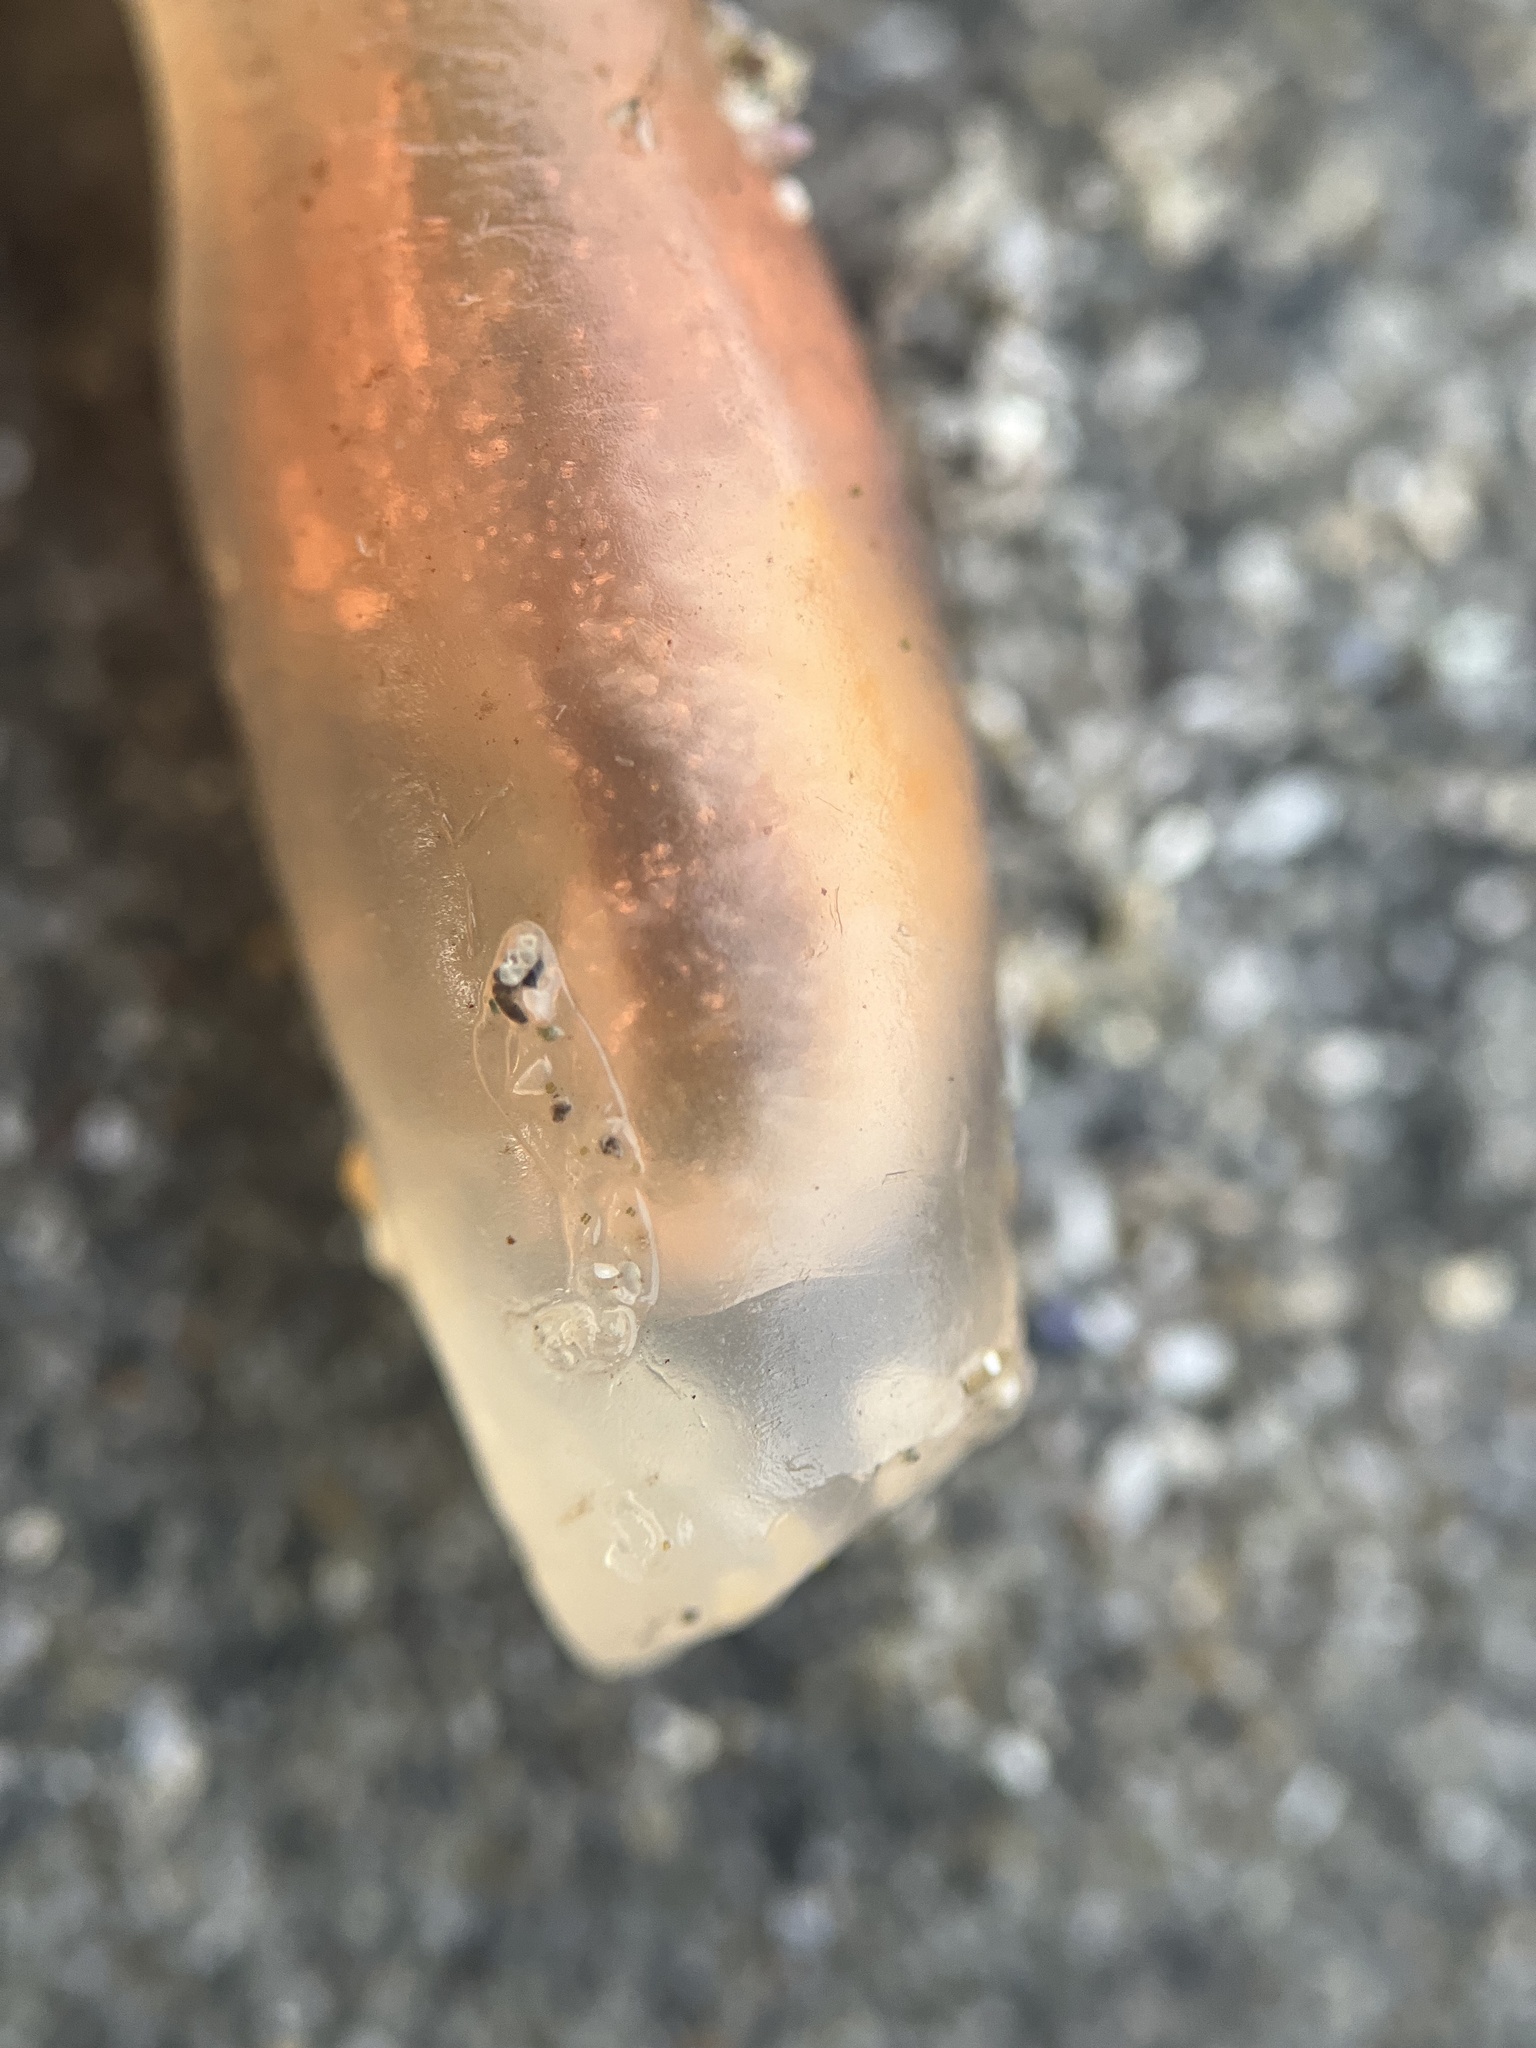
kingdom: Animalia
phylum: Chordata
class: Ascidiacea
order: Aplousobranchia
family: Clavelinidae
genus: Clavelina
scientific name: Clavelina huntsmani
